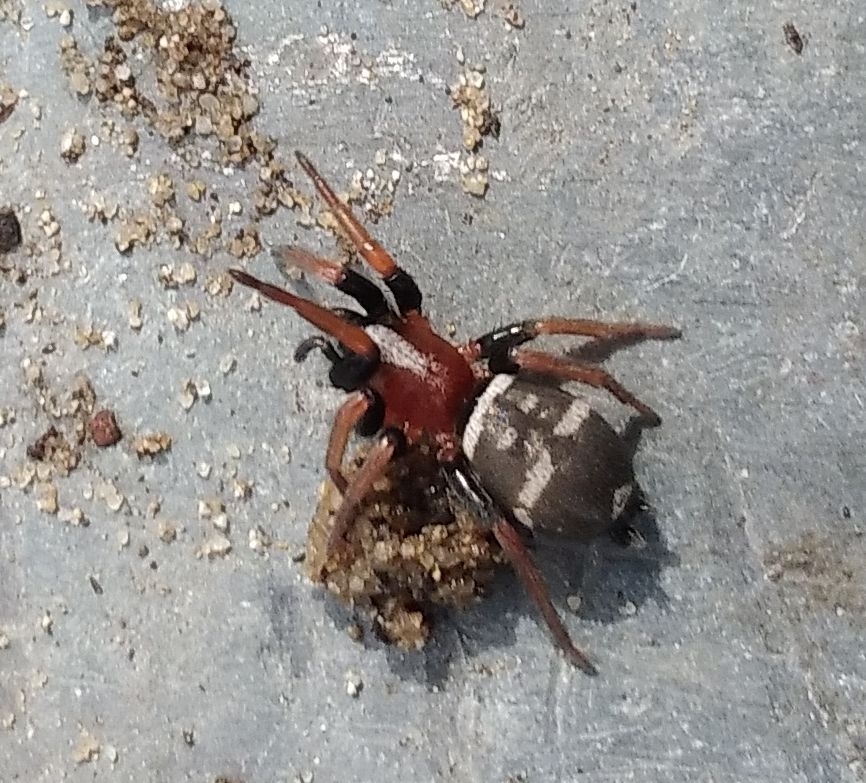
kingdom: Animalia
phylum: Arthropoda
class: Arachnida
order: Araneae
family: Gnaphosidae
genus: Poecilochroa
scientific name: Poecilochroa variana
